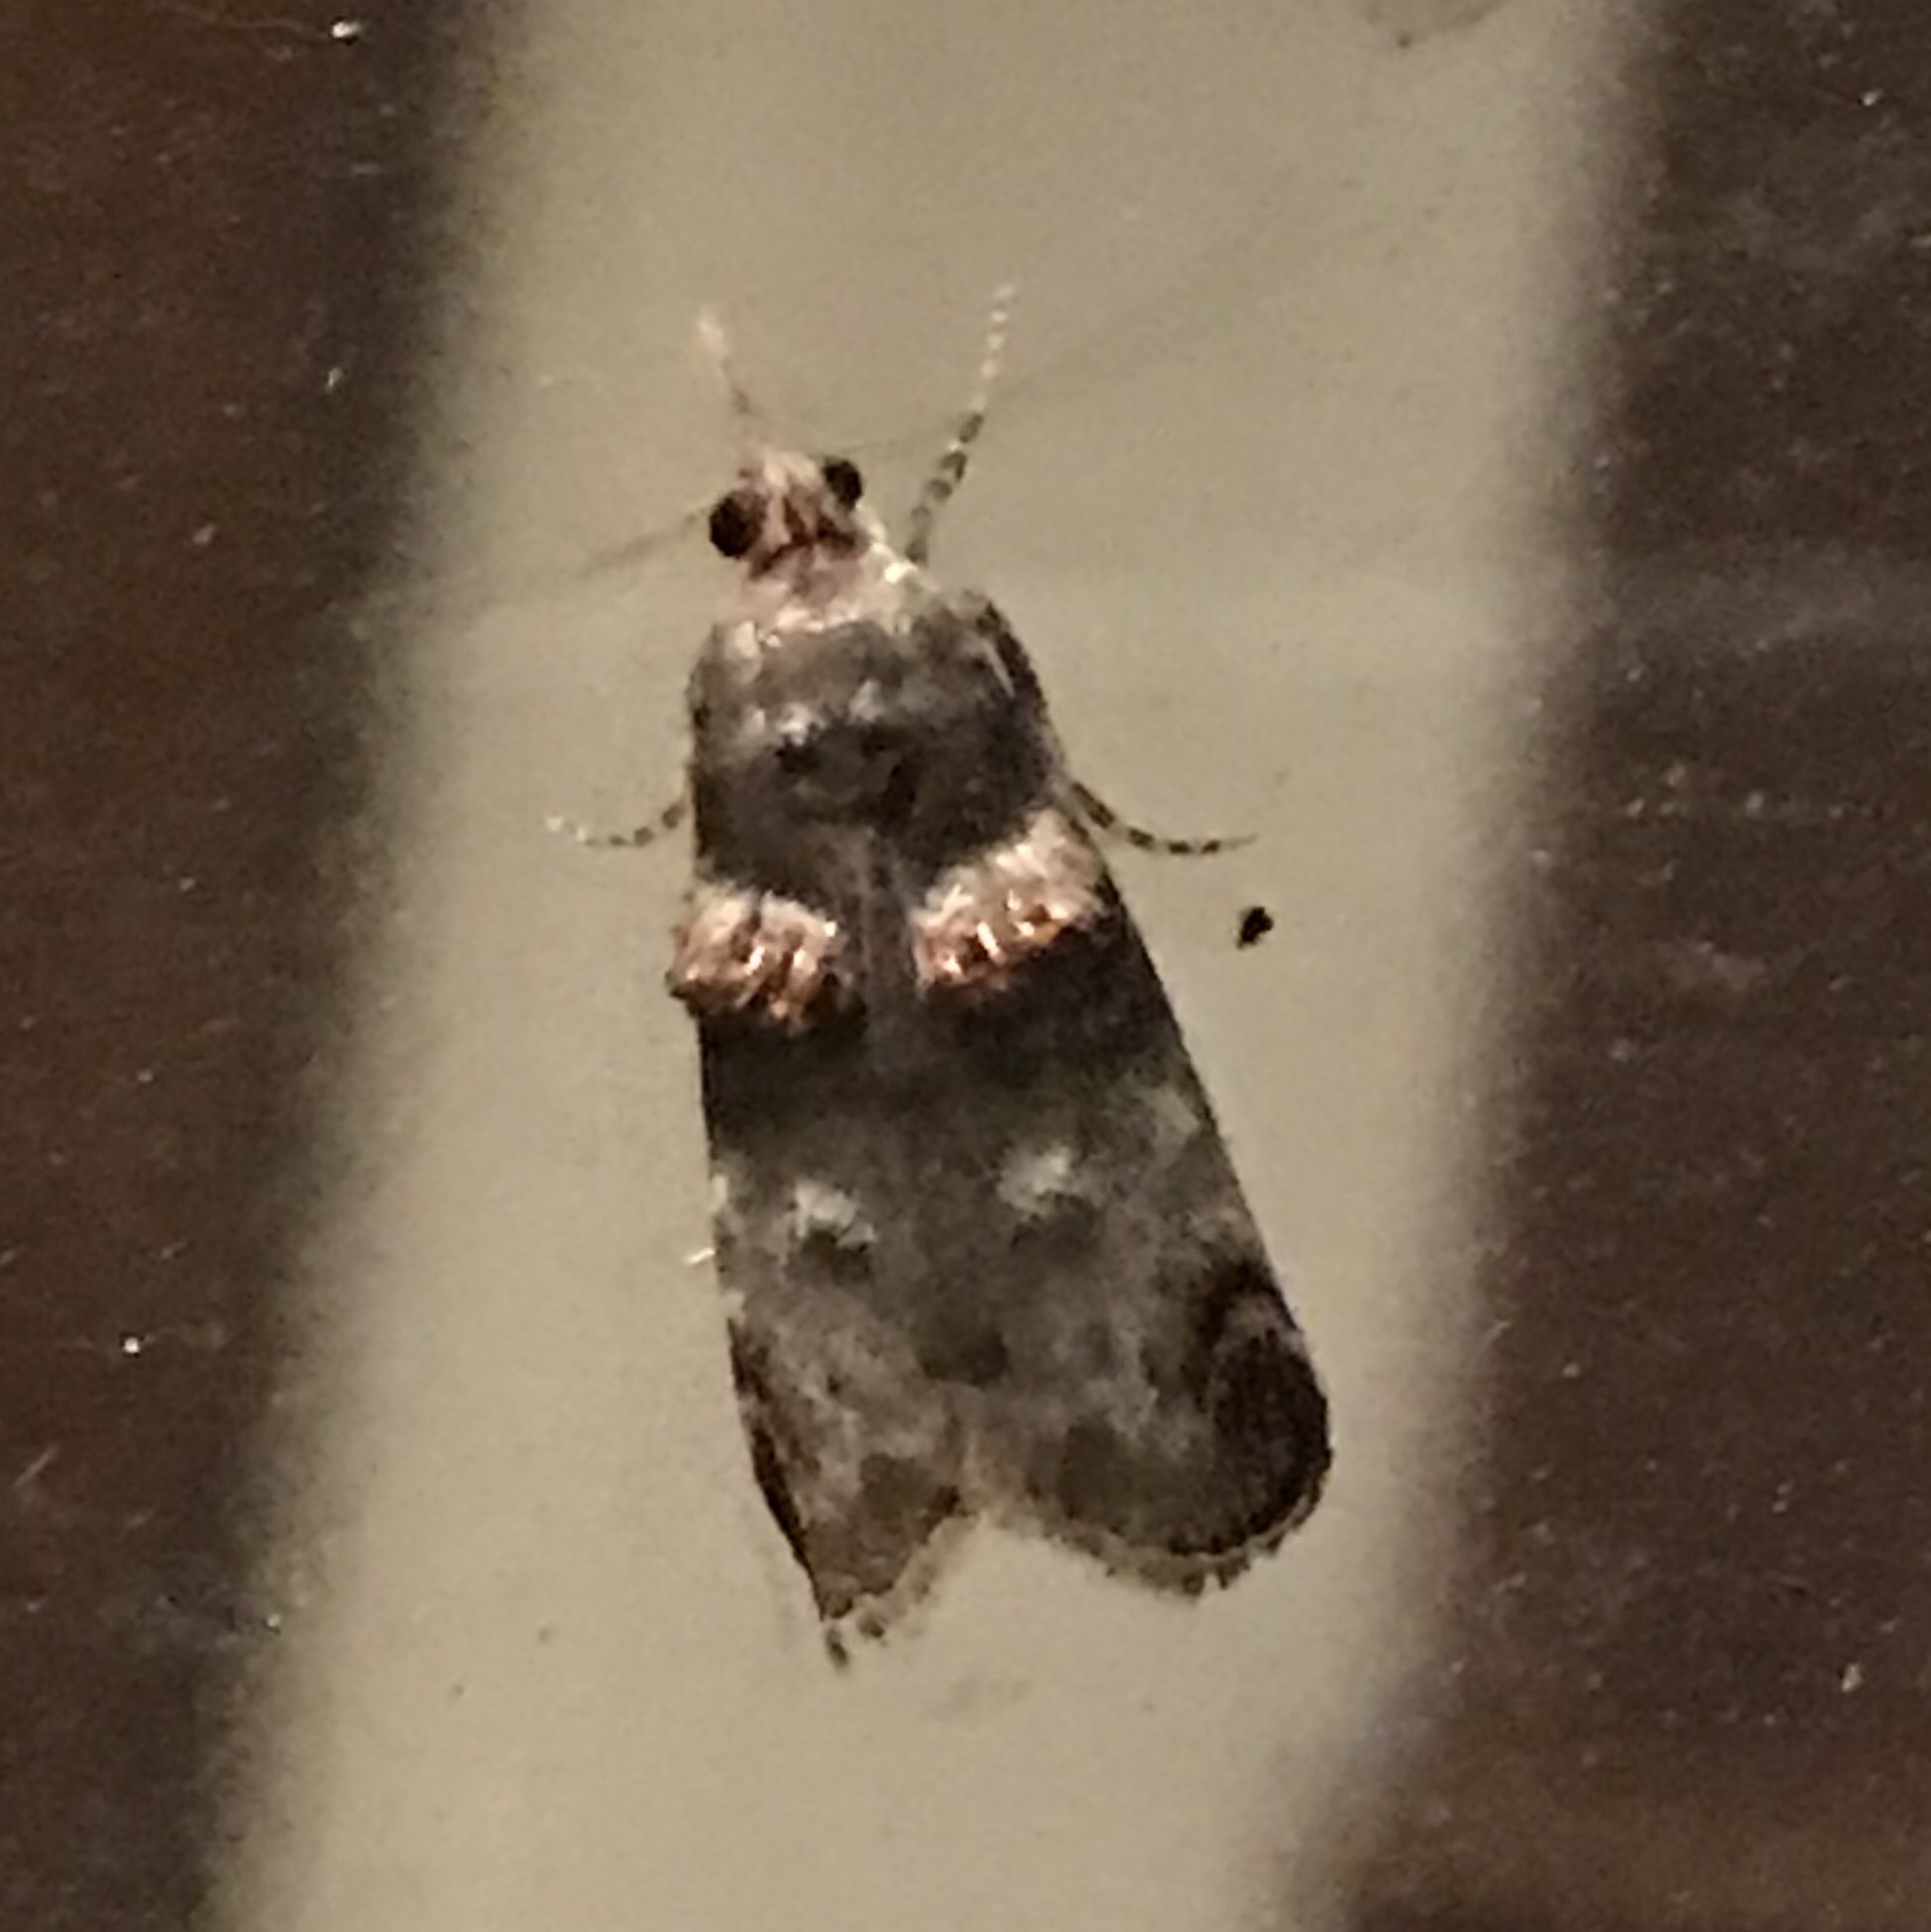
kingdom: Animalia
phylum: Arthropoda
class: Insecta
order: Lepidoptera
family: Pyralidae
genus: Oneida
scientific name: Oneida lunulalis
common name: Orange-tufted oneida moth
